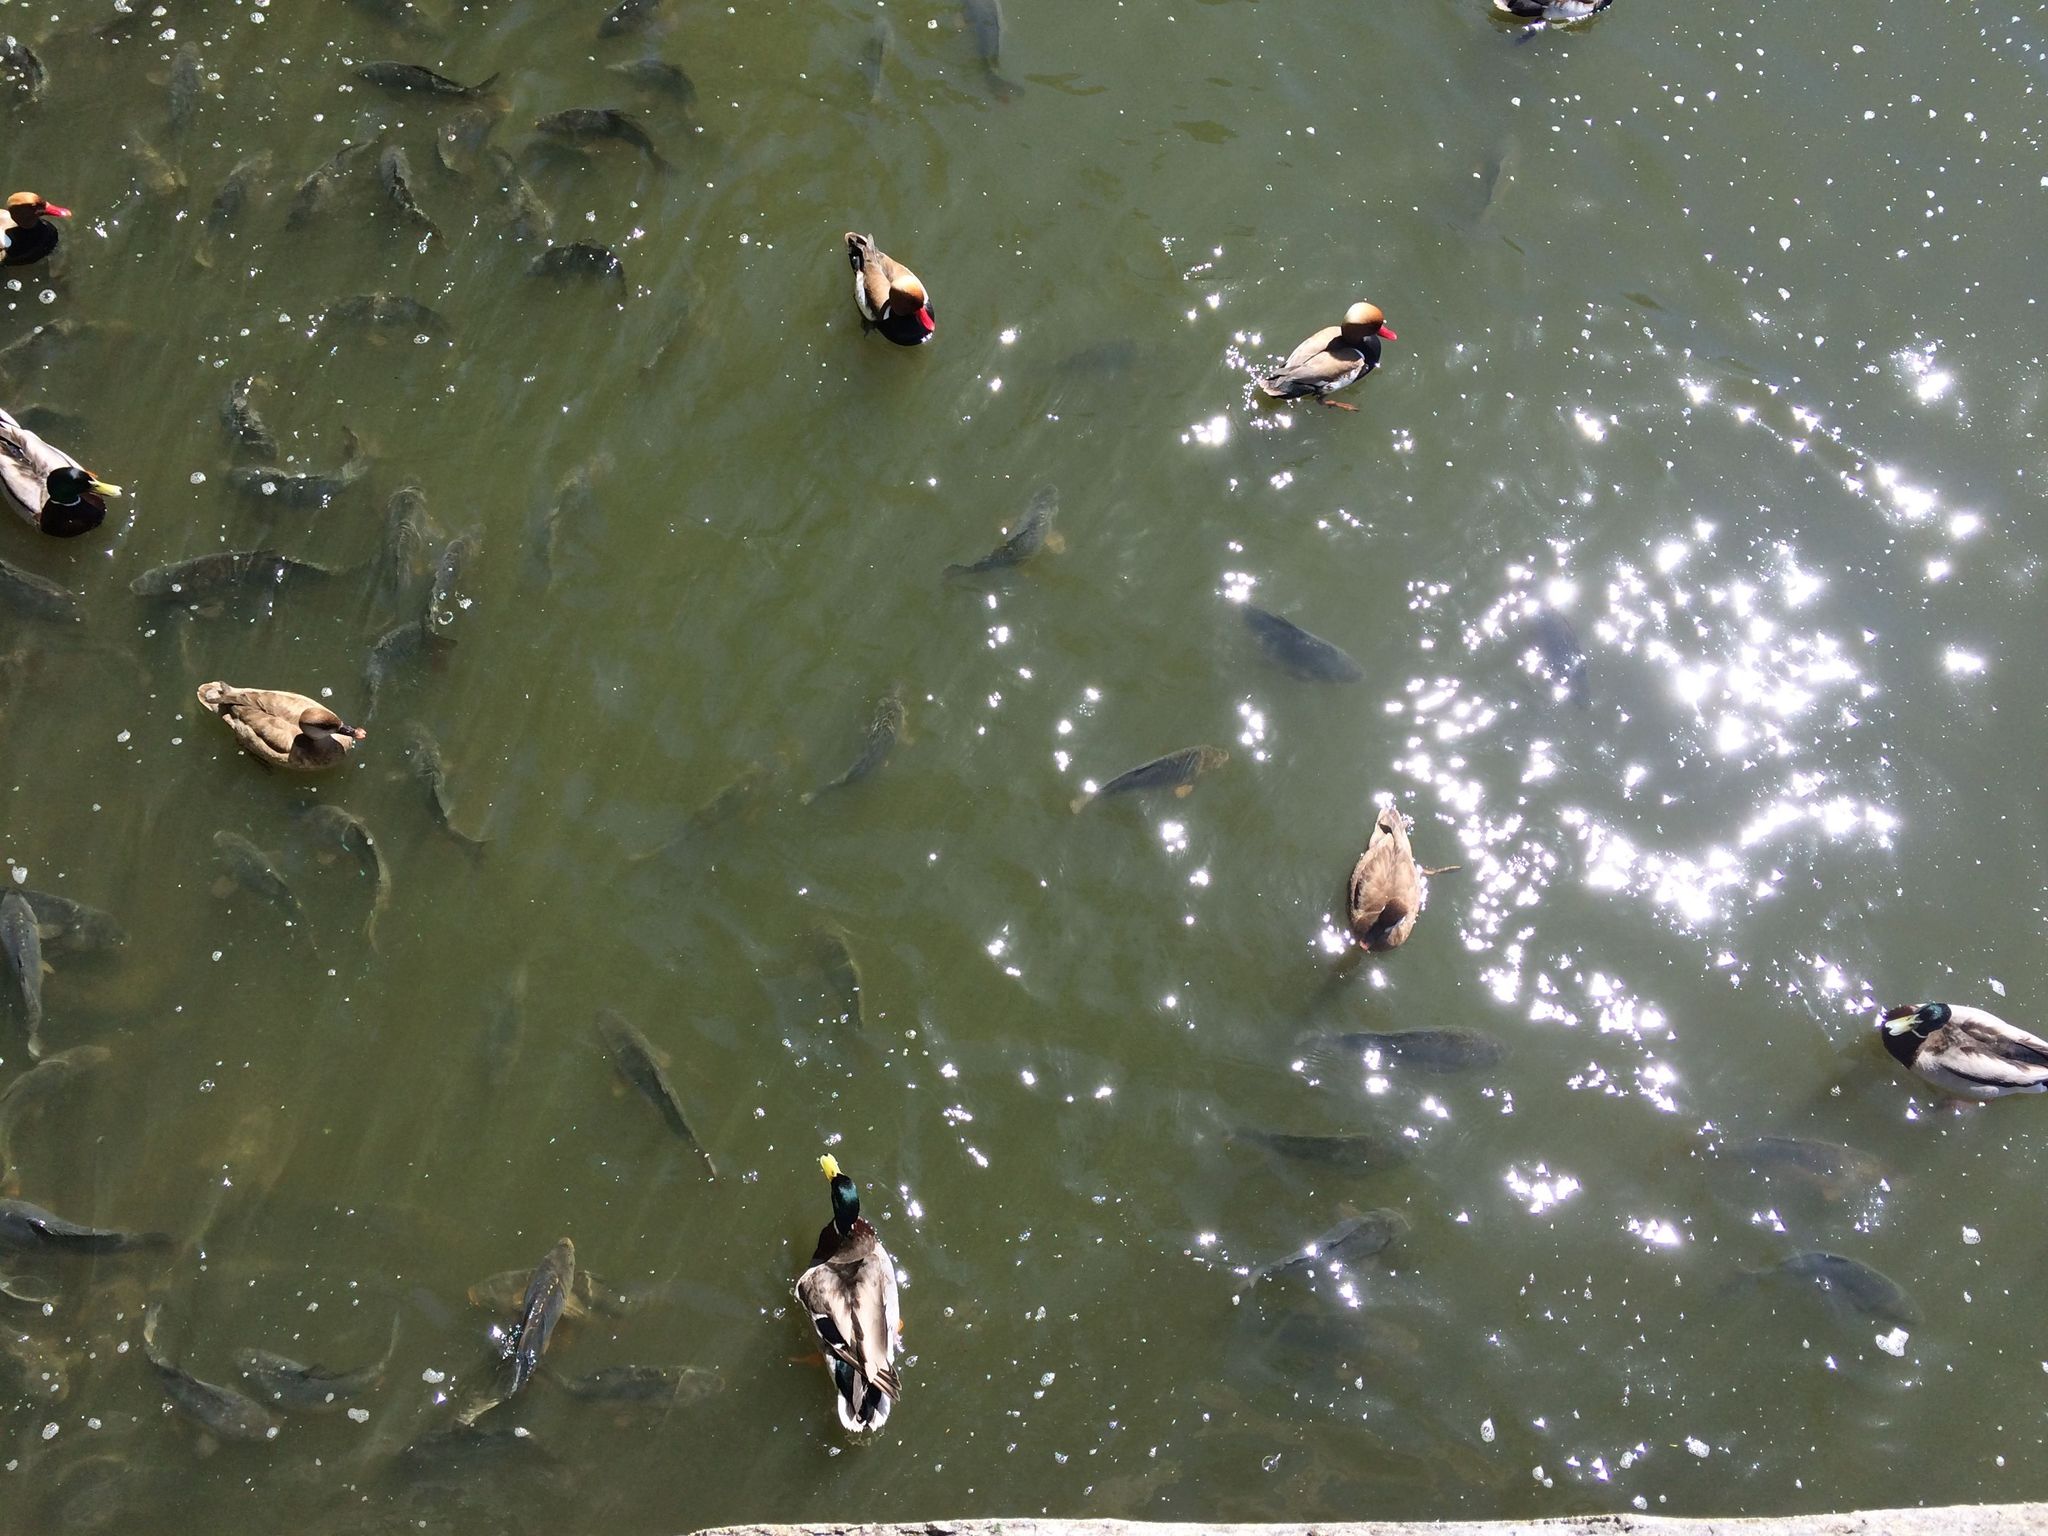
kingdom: Animalia
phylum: Chordata
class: Aves
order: Anseriformes
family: Anatidae
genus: Anas
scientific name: Anas platyrhynchos
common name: Mallard
